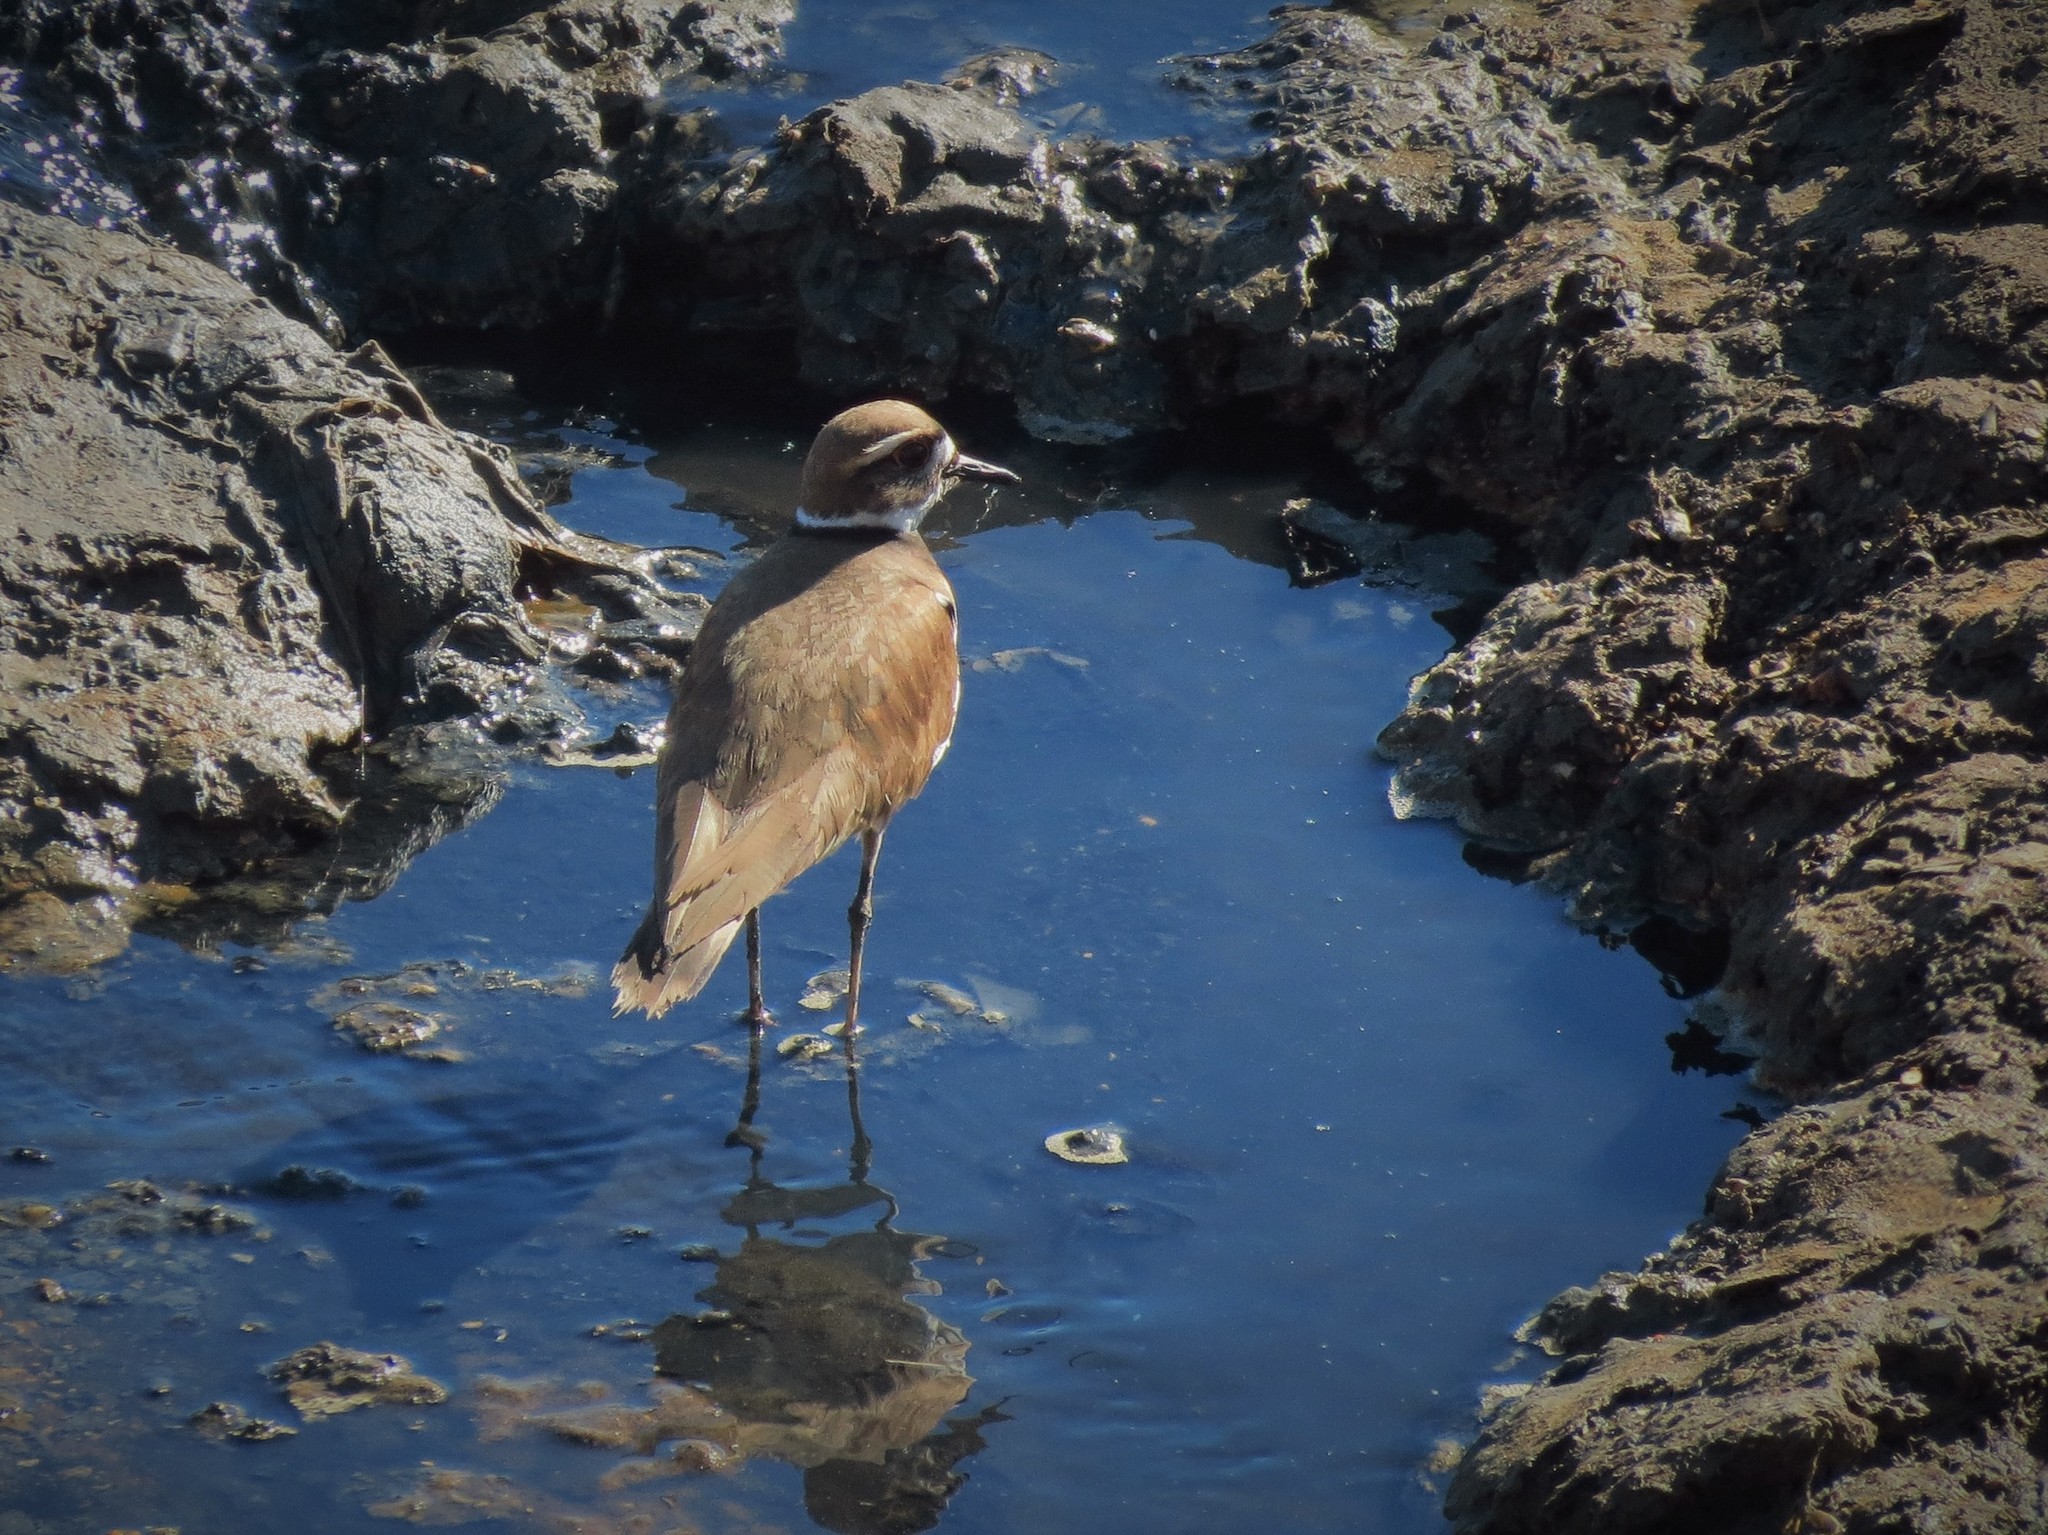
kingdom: Animalia
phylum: Chordata
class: Aves
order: Charadriiformes
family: Charadriidae
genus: Charadrius
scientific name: Charadrius vociferus
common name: Killdeer
